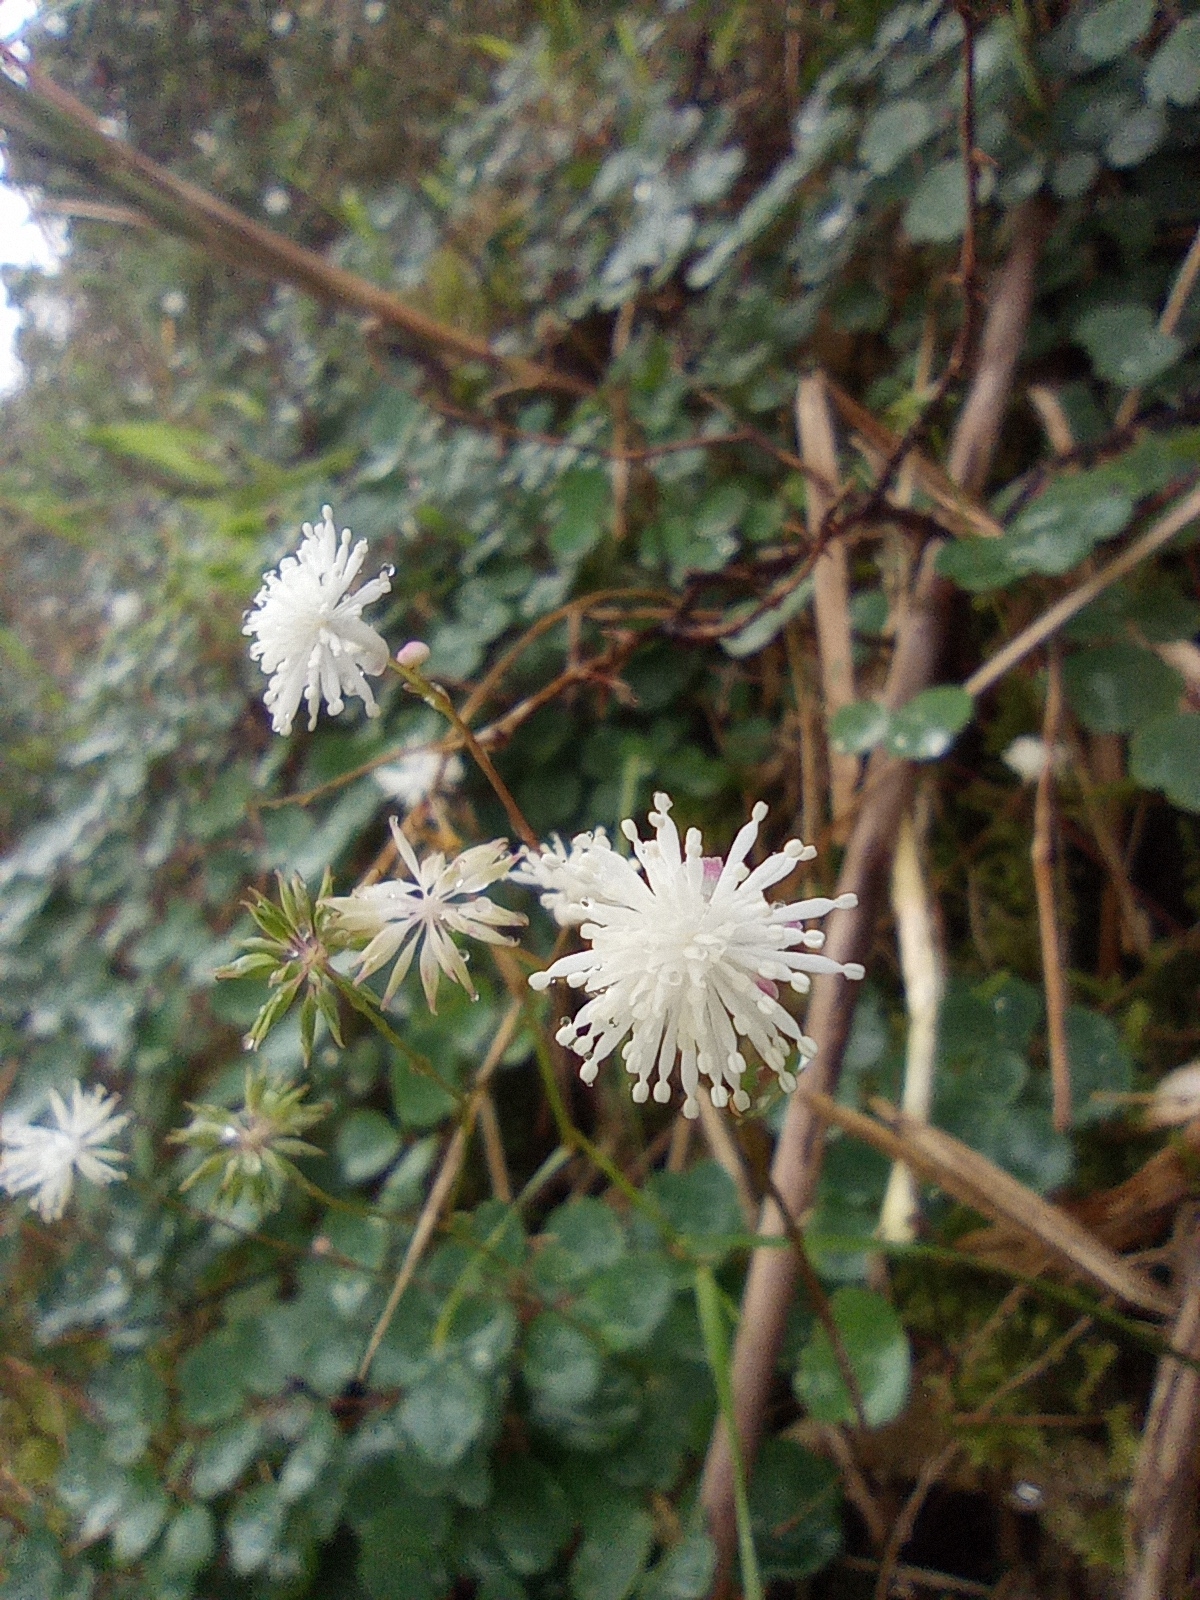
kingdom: Plantae
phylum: Tracheophyta
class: Magnoliopsida
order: Ranunculales
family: Ranunculaceae
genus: Thalictrum
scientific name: Thalictrum urbaini
